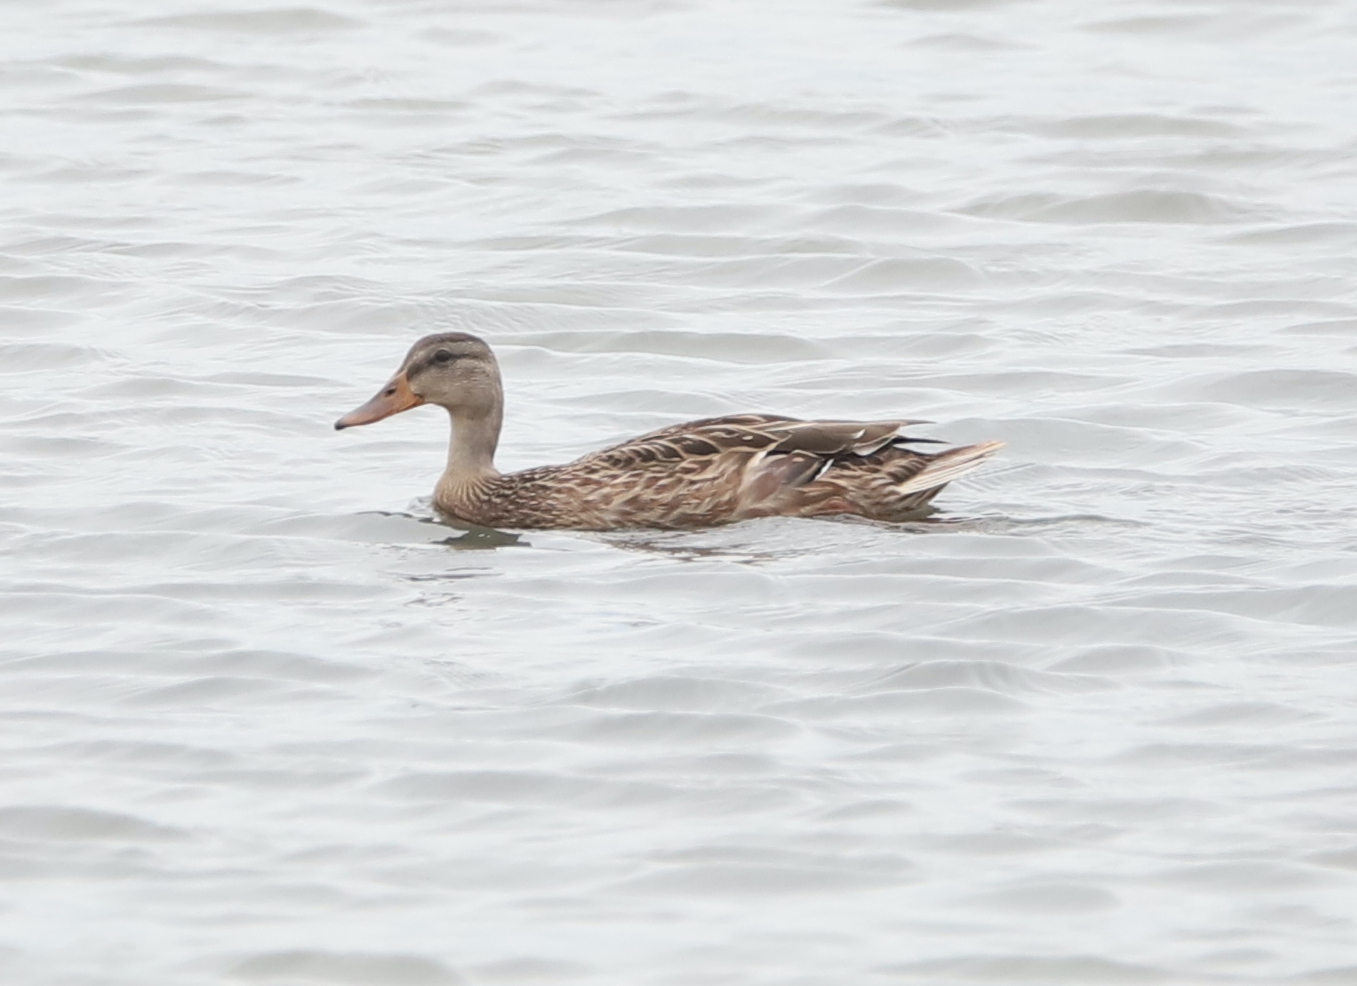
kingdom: Animalia
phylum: Chordata
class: Aves
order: Anseriformes
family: Anatidae
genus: Anas
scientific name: Anas platyrhynchos
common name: Mallard
